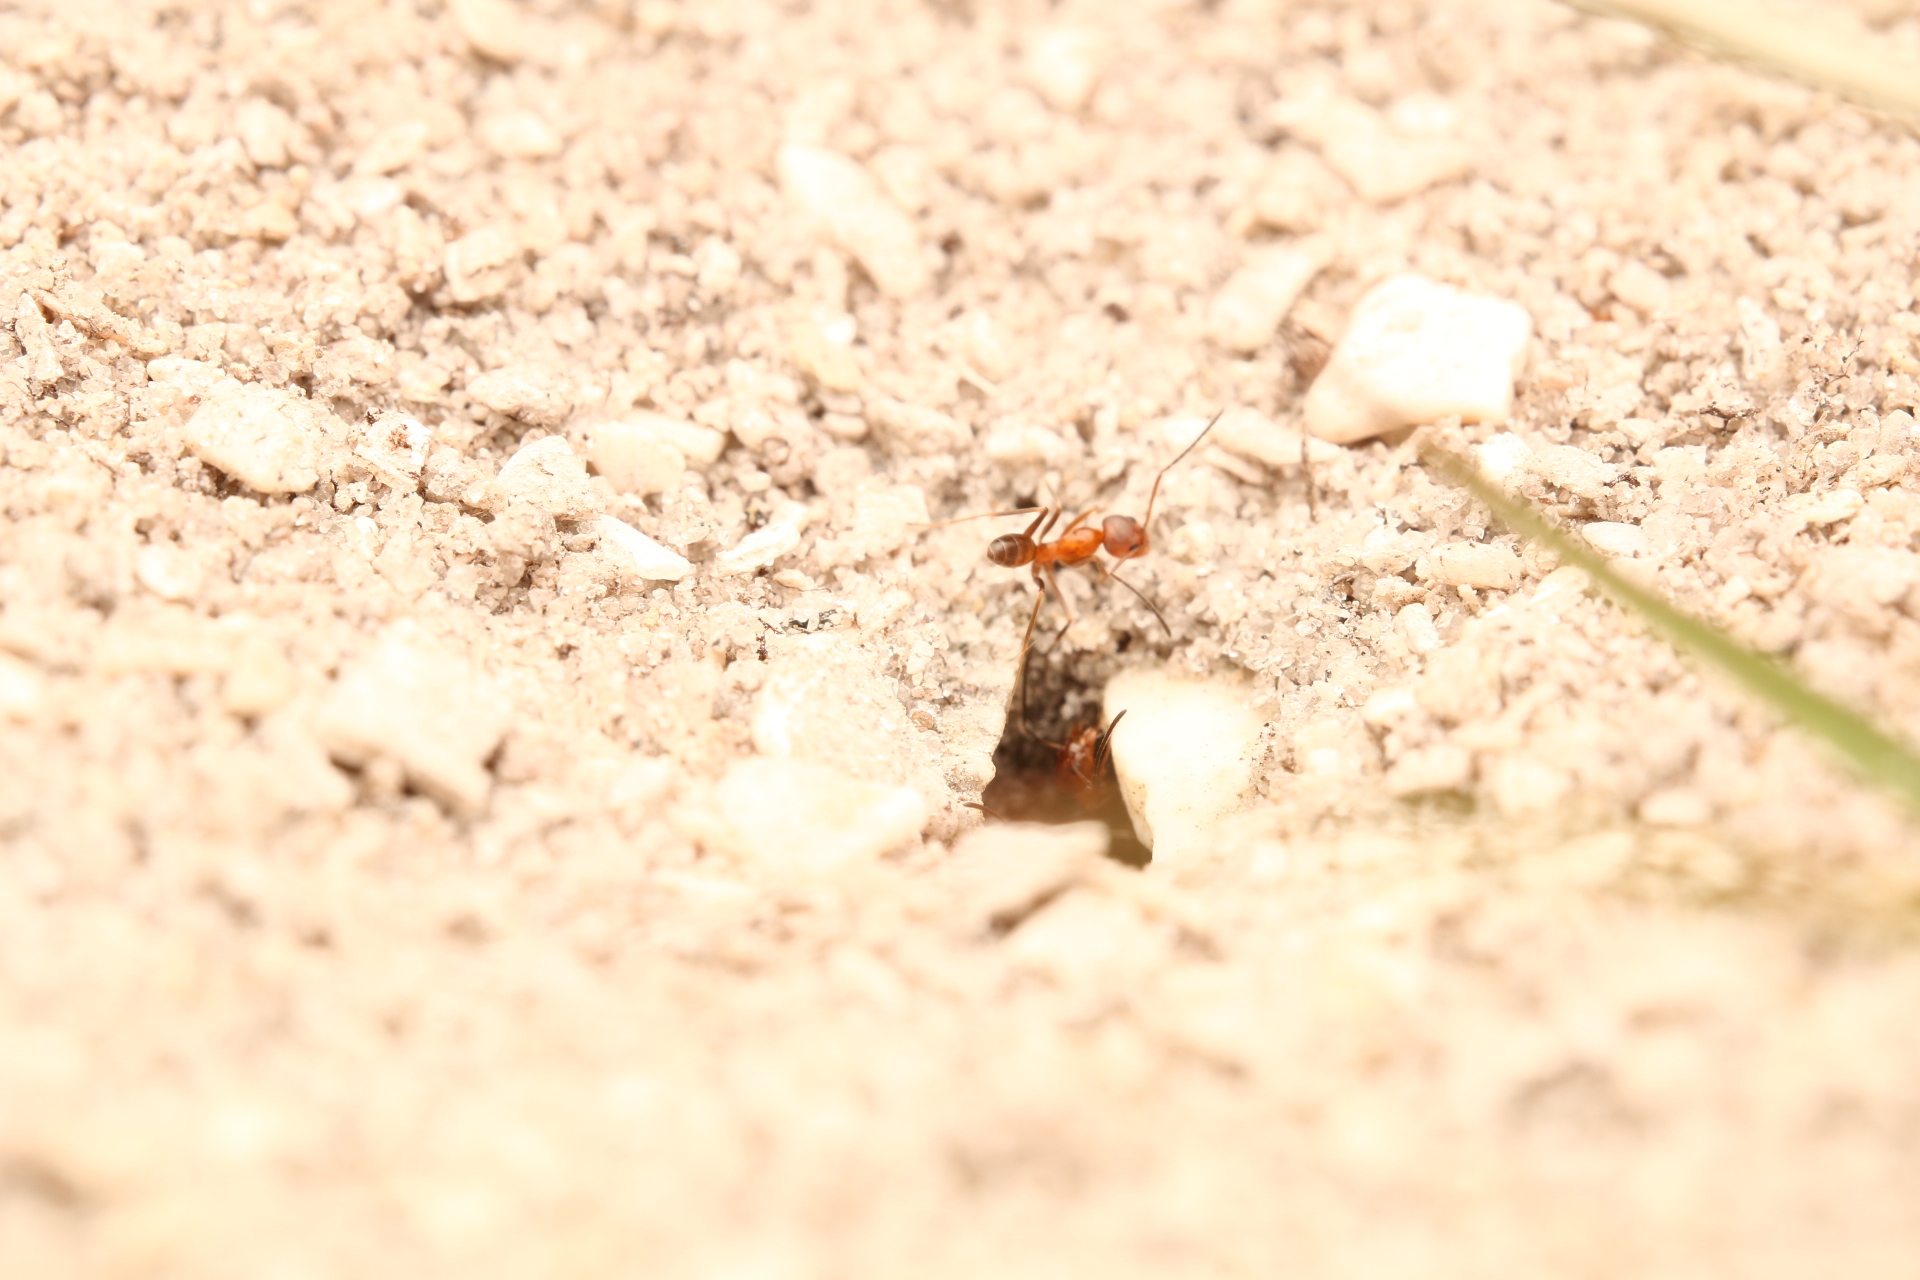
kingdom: Animalia
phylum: Arthropoda
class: Insecta
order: Hymenoptera
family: Formicidae
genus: Dorymyrmex
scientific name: Dorymyrmex bureni
